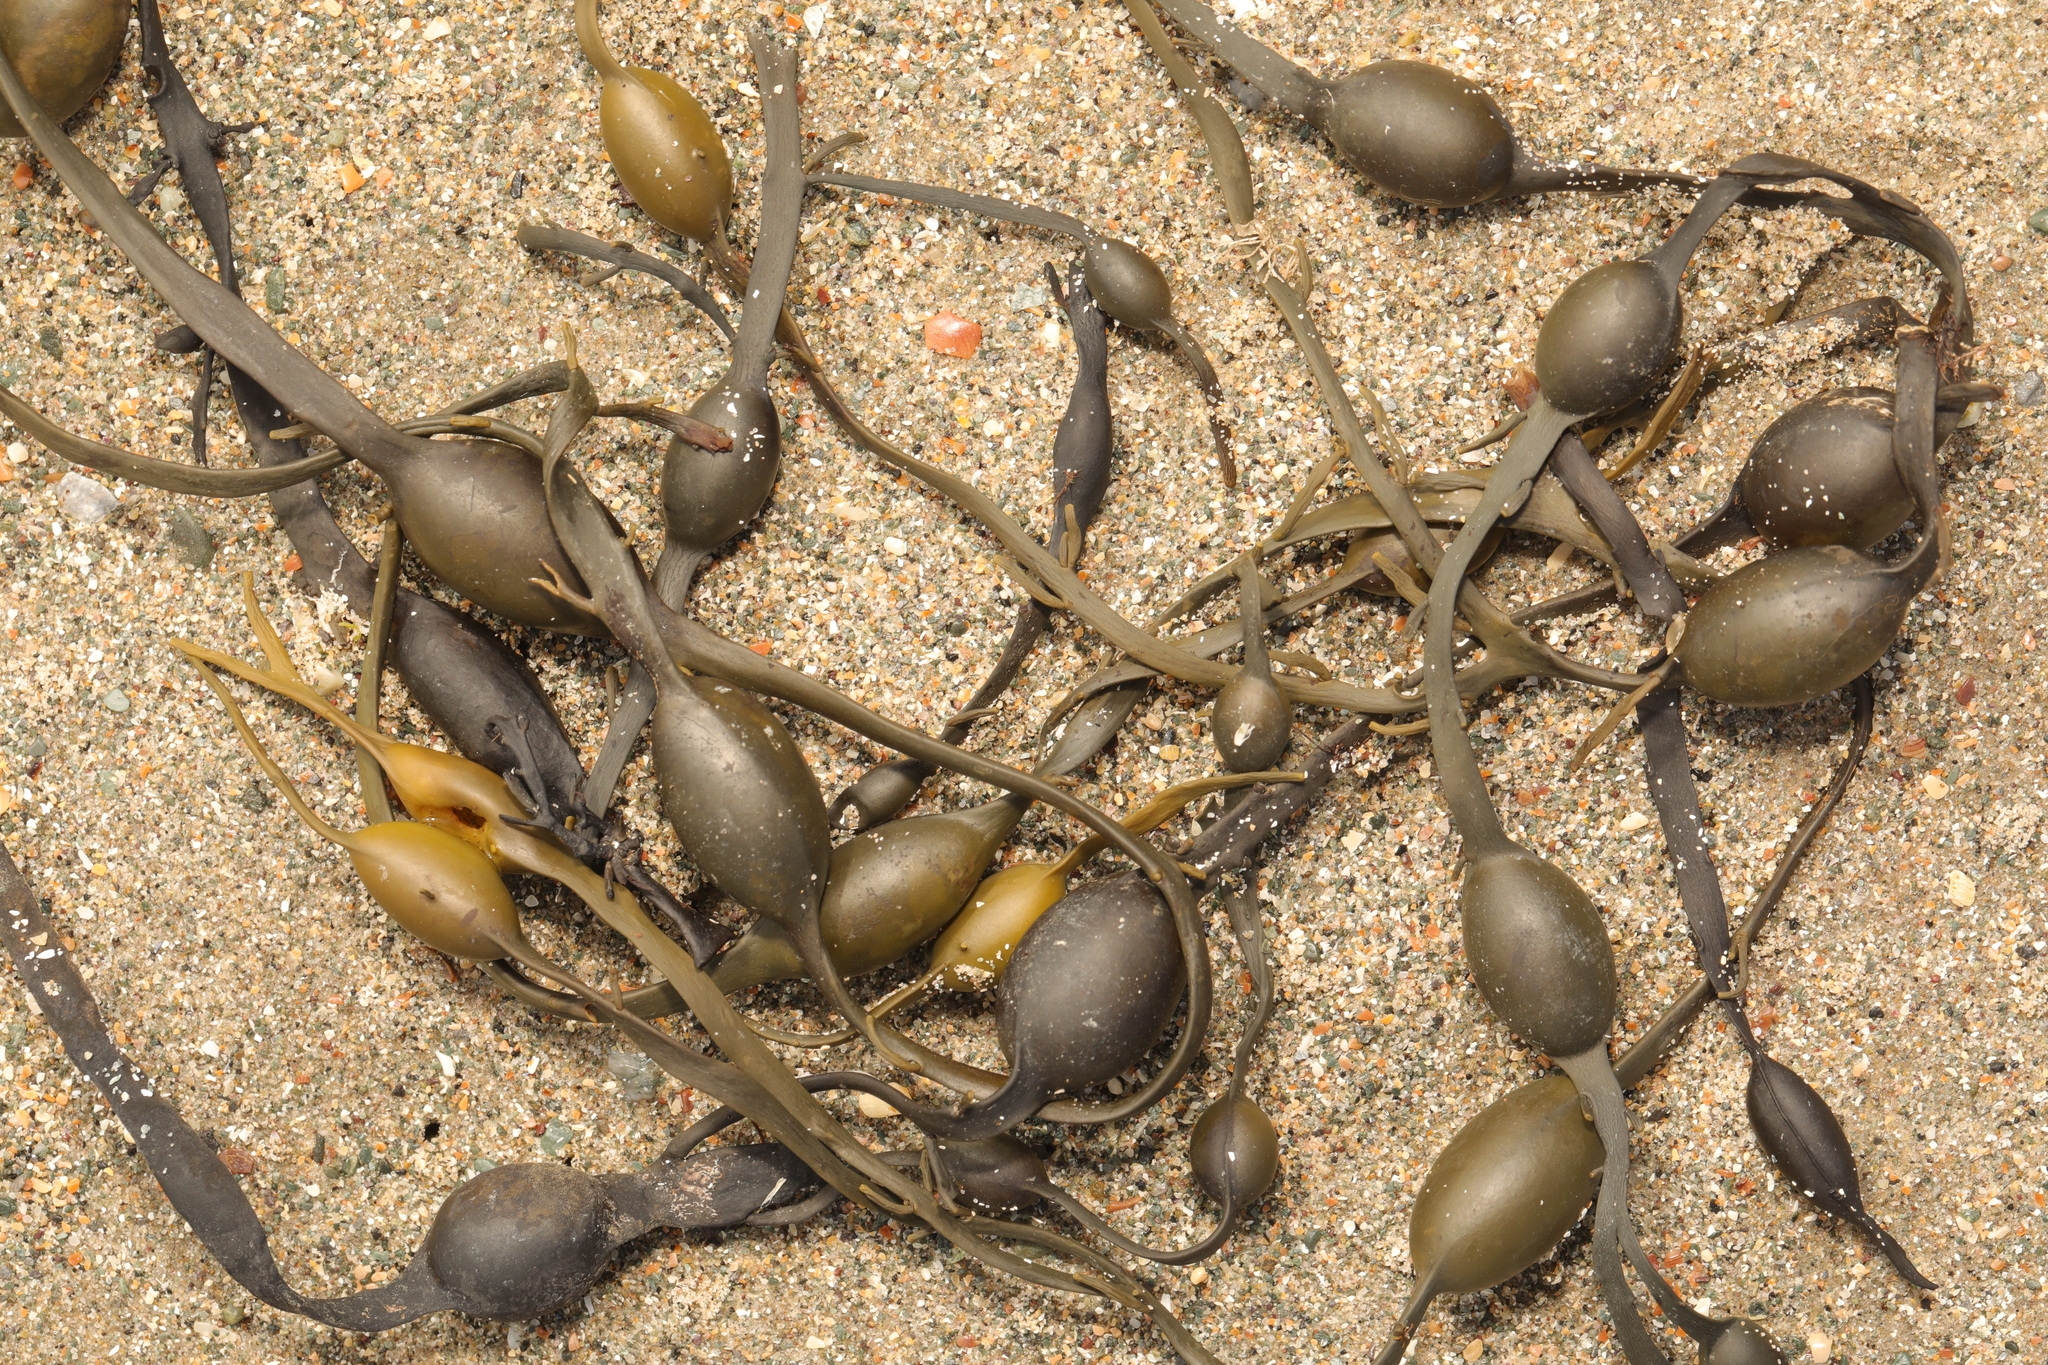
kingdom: Chromista
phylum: Ochrophyta
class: Phaeophyceae
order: Fucales
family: Fucaceae
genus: Ascophyllum
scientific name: Ascophyllum nodosum
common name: Knotted wrack
